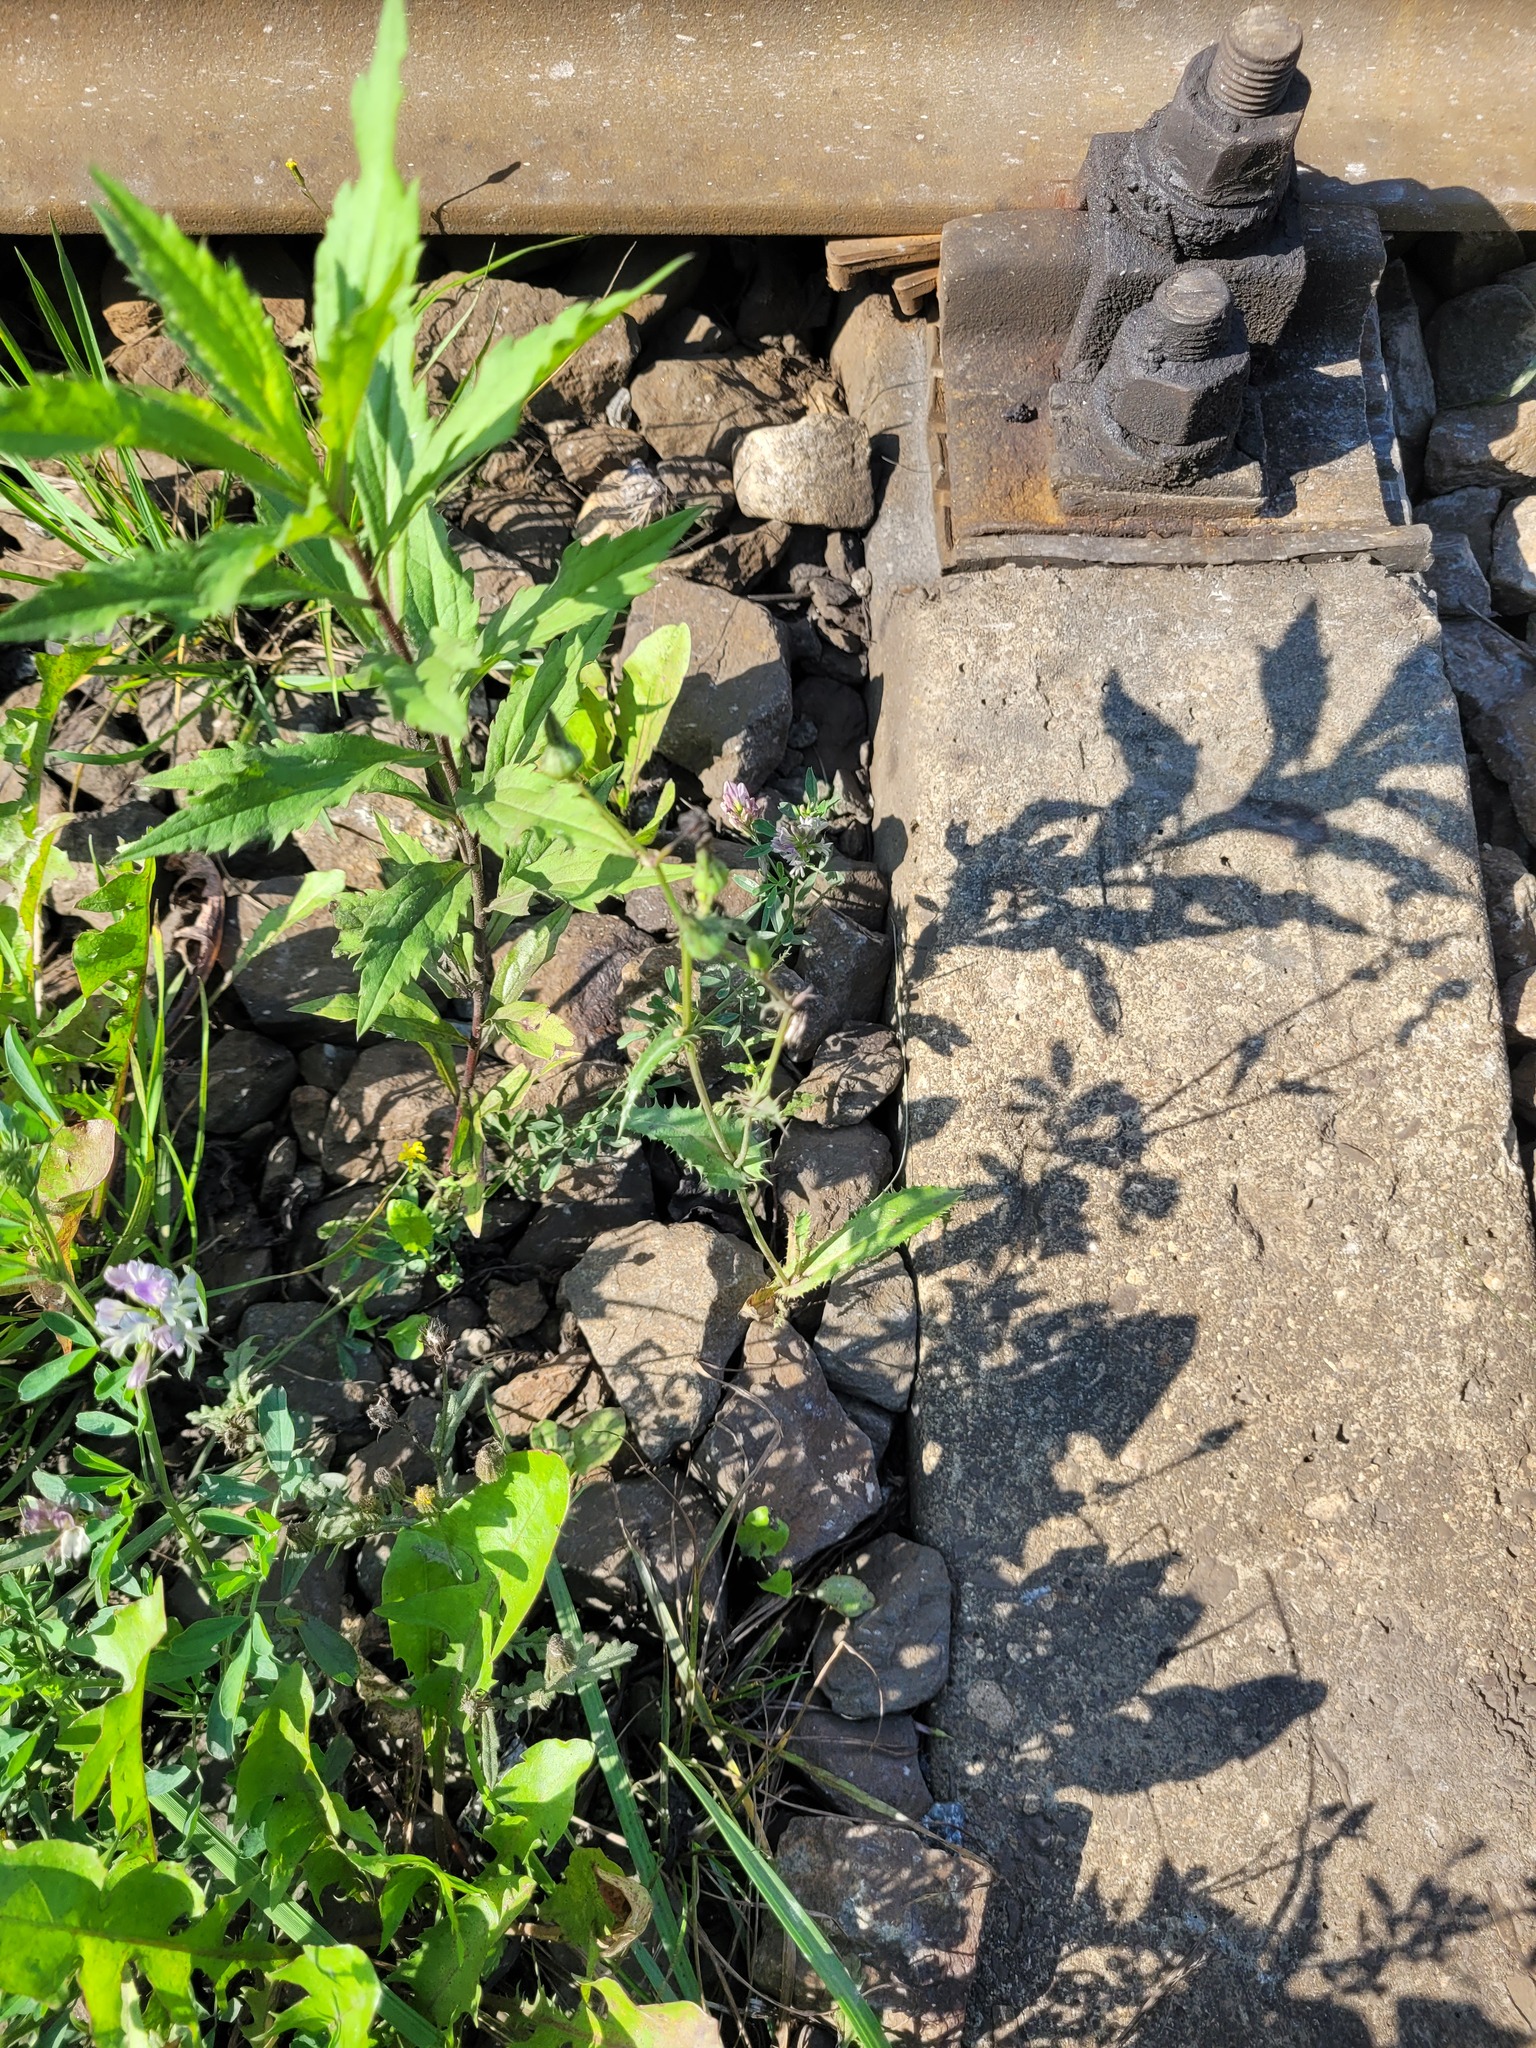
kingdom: Plantae
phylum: Tracheophyta
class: Magnoliopsida
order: Asterales
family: Asteraceae
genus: Sonchus
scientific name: Sonchus asper
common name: Prickly sow-thistle
